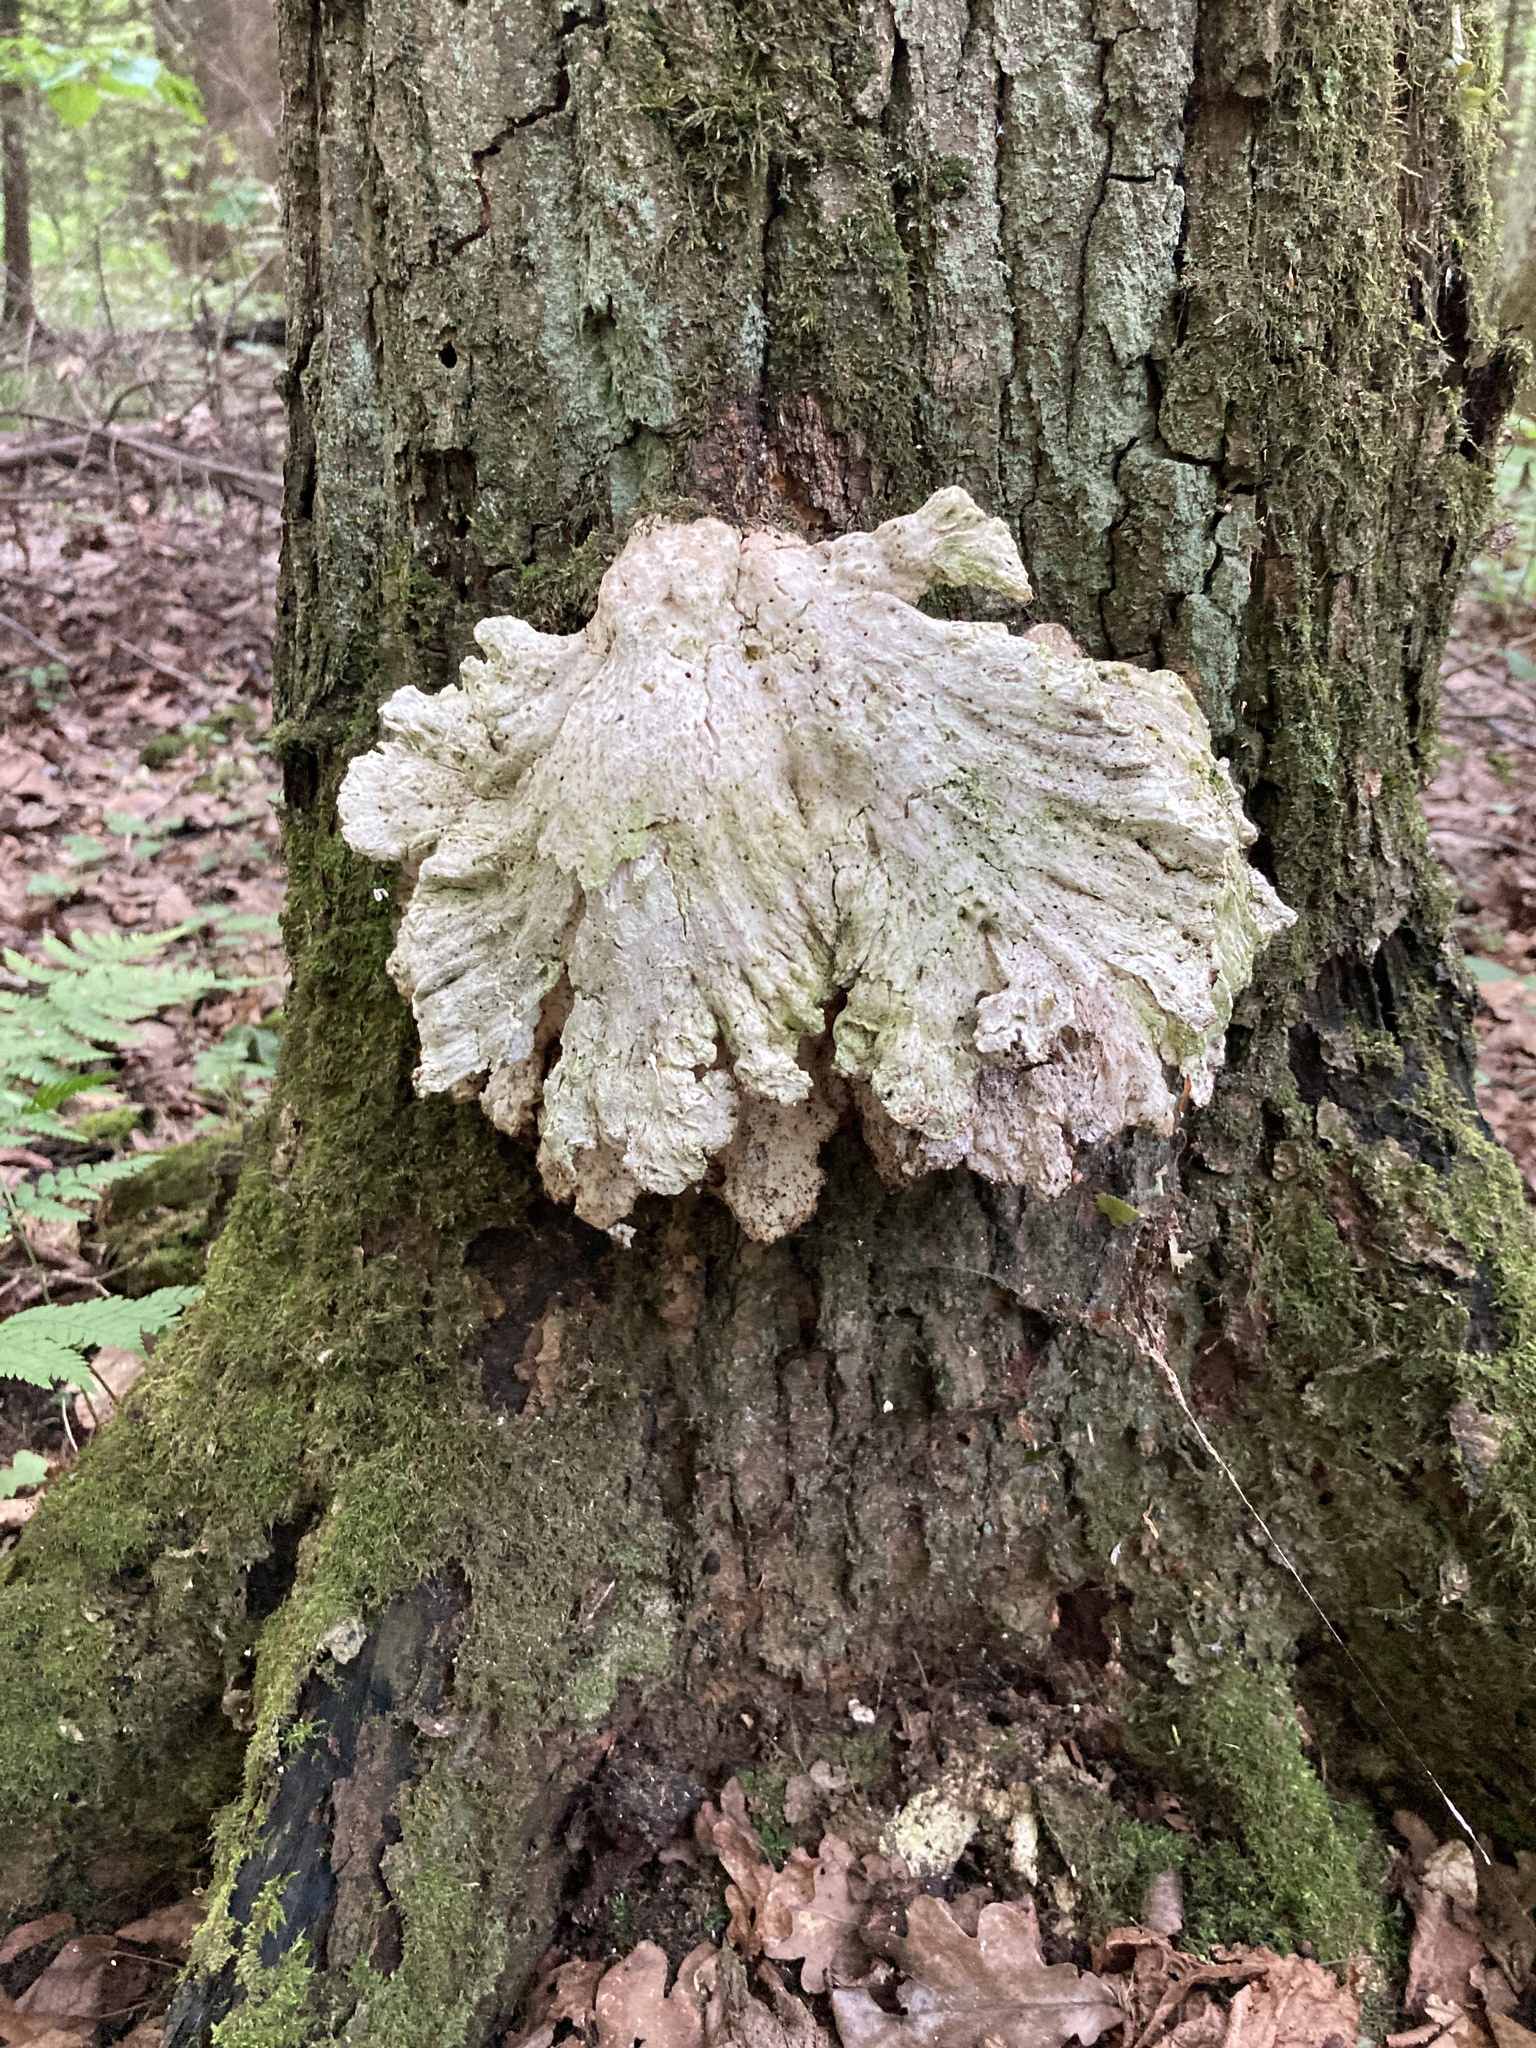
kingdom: Fungi
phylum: Basidiomycota
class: Agaricomycetes
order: Polyporales
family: Laetiporaceae
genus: Laetiporus
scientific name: Laetiporus sulphureus
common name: Chicken of the woods
